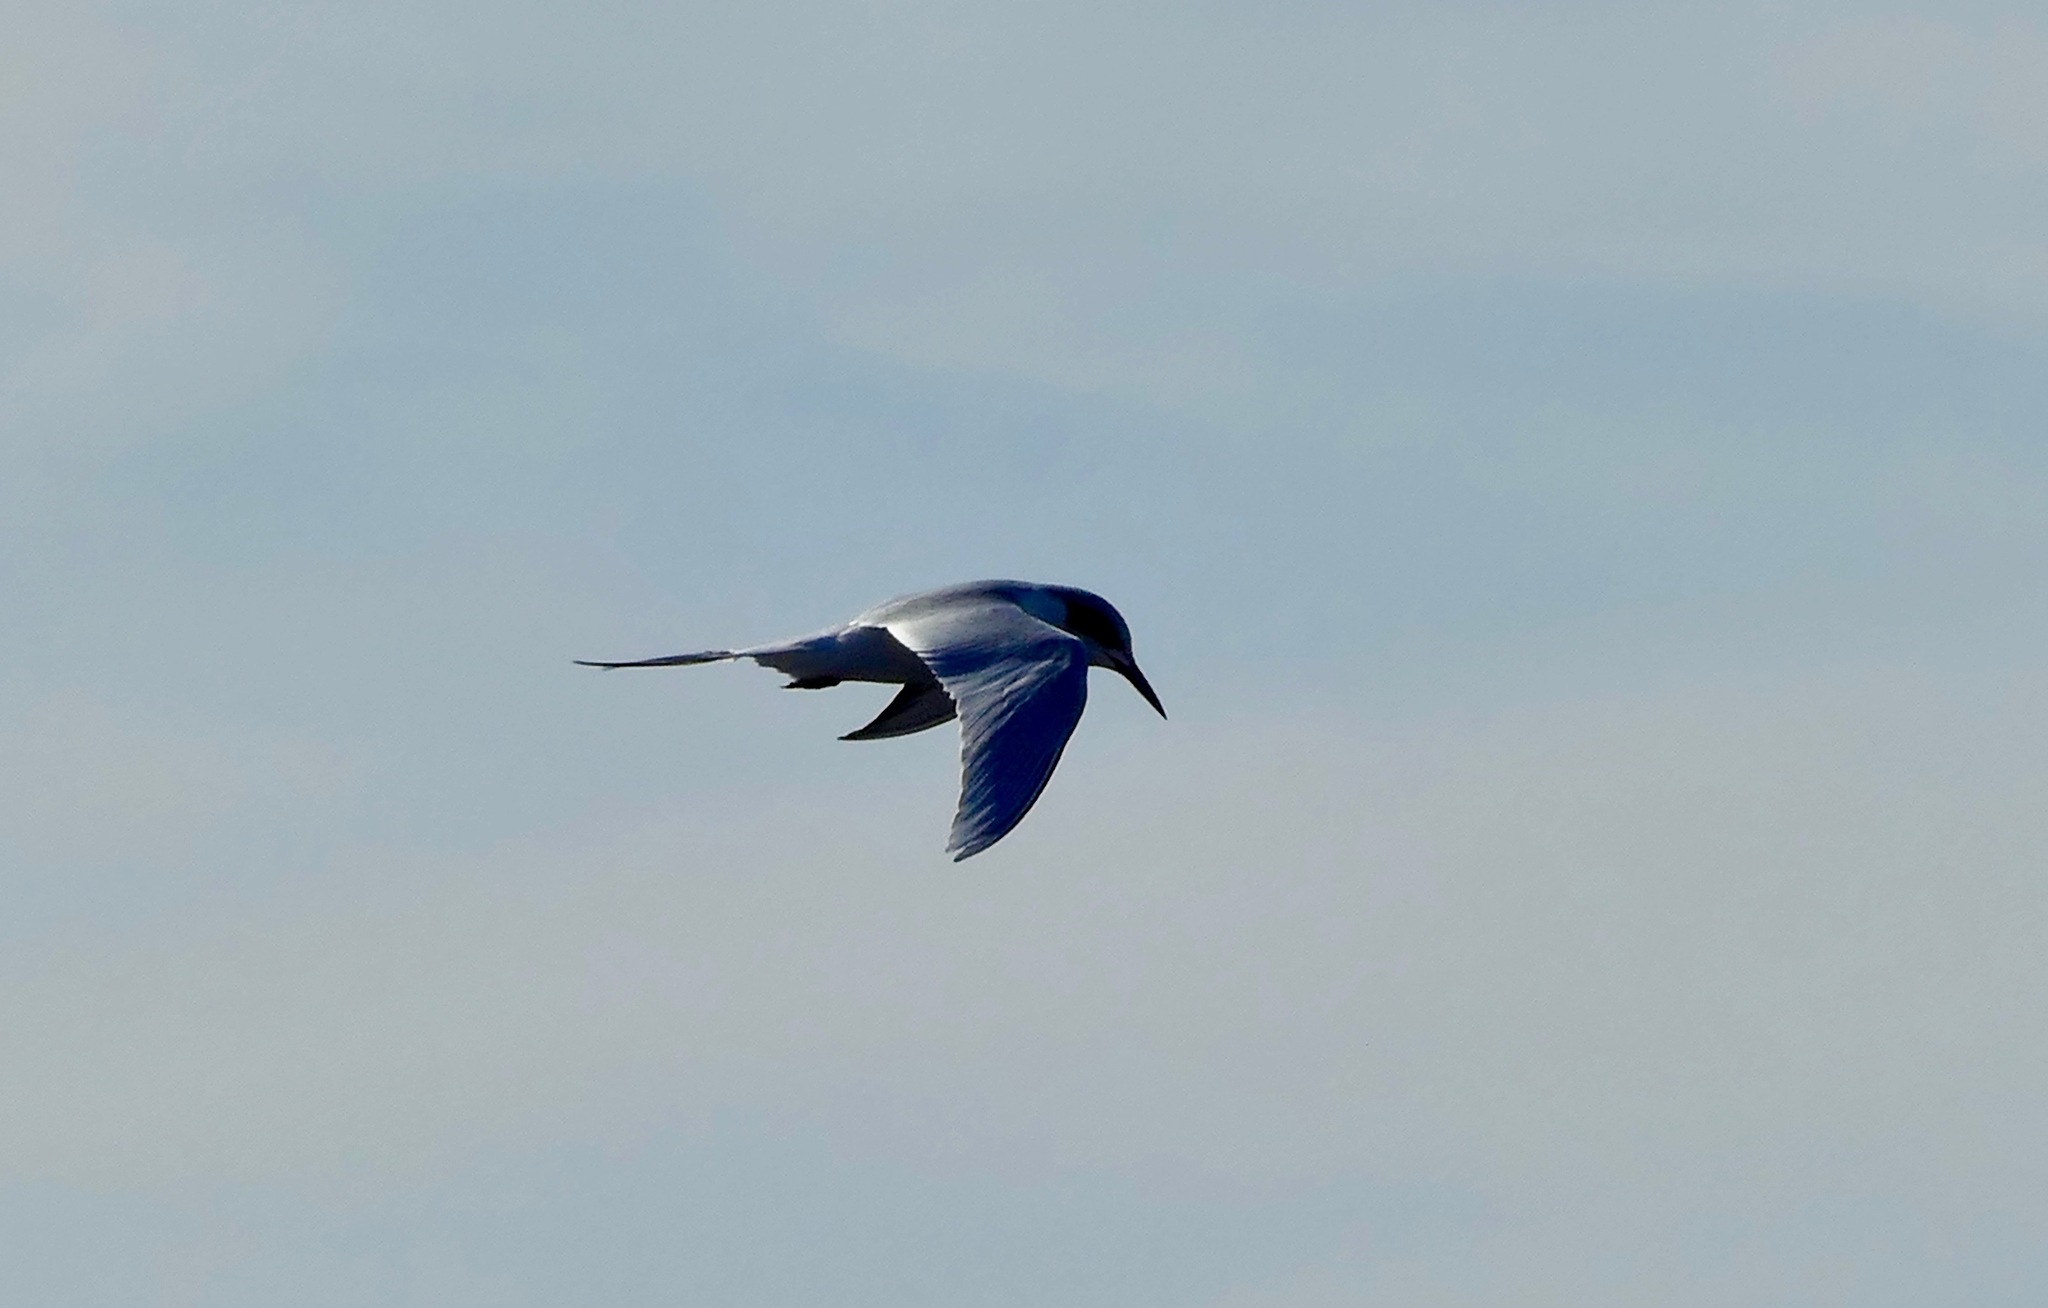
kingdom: Animalia
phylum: Chordata
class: Aves
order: Charadriiformes
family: Laridae
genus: Sterna
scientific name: Sterna forsteri
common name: Forster's tern
